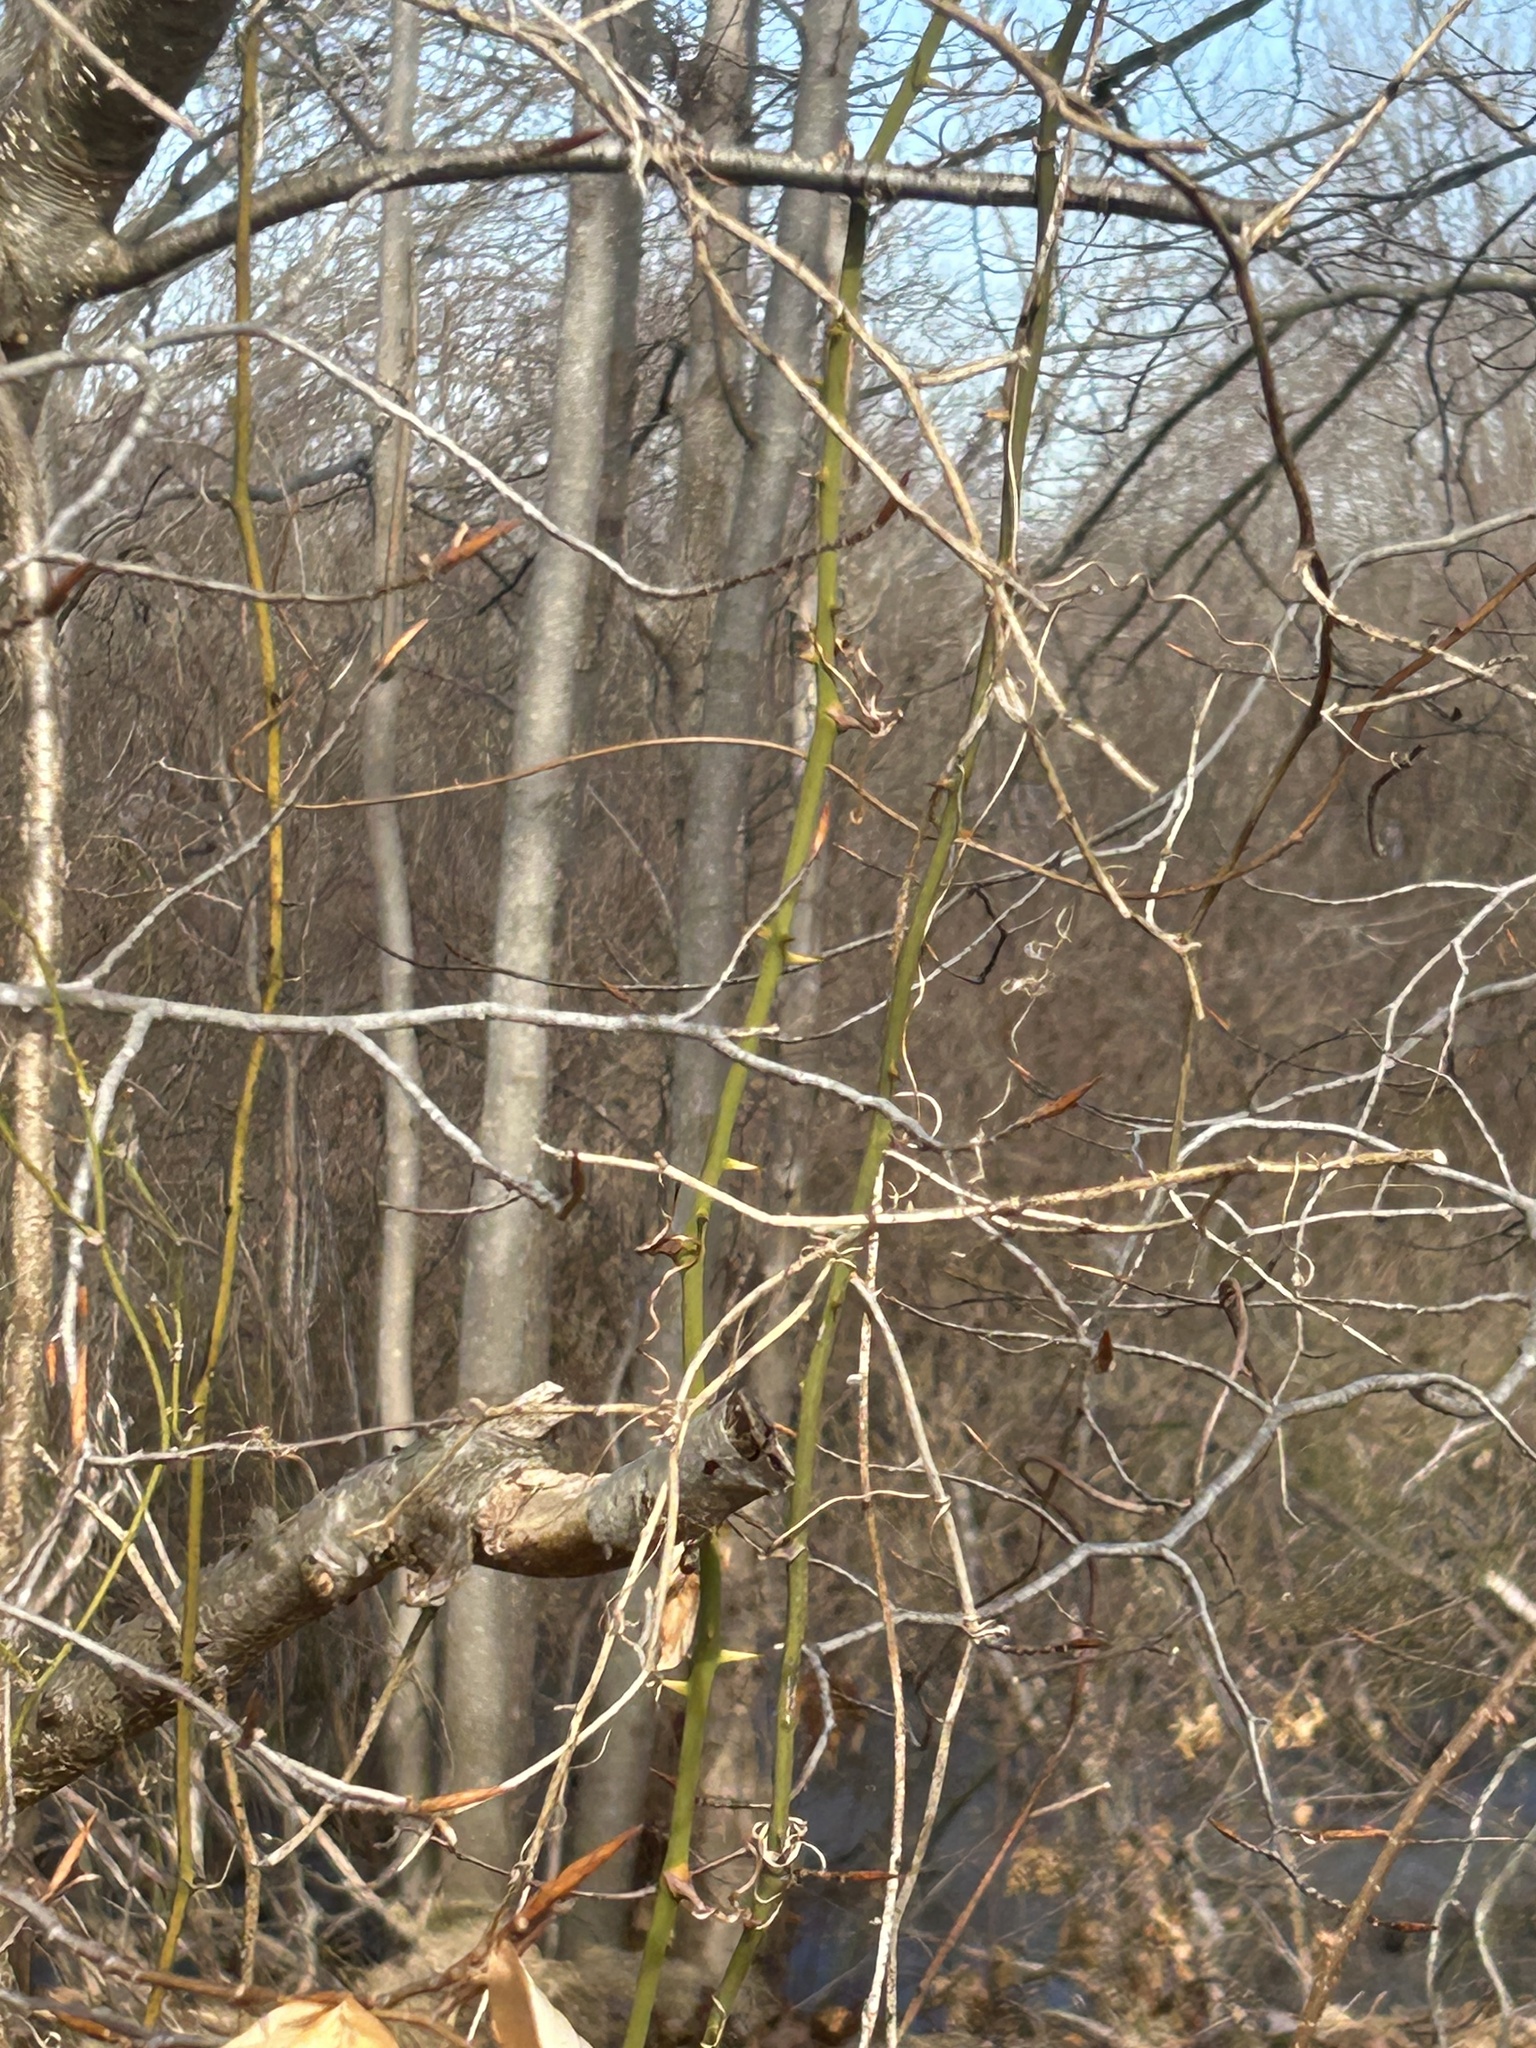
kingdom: Plantae
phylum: Tracheophyta
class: Liliopsida
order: Liliales
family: Smilacaceae
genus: Smilax
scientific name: Smilax rotundifolia
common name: Bullbriar
